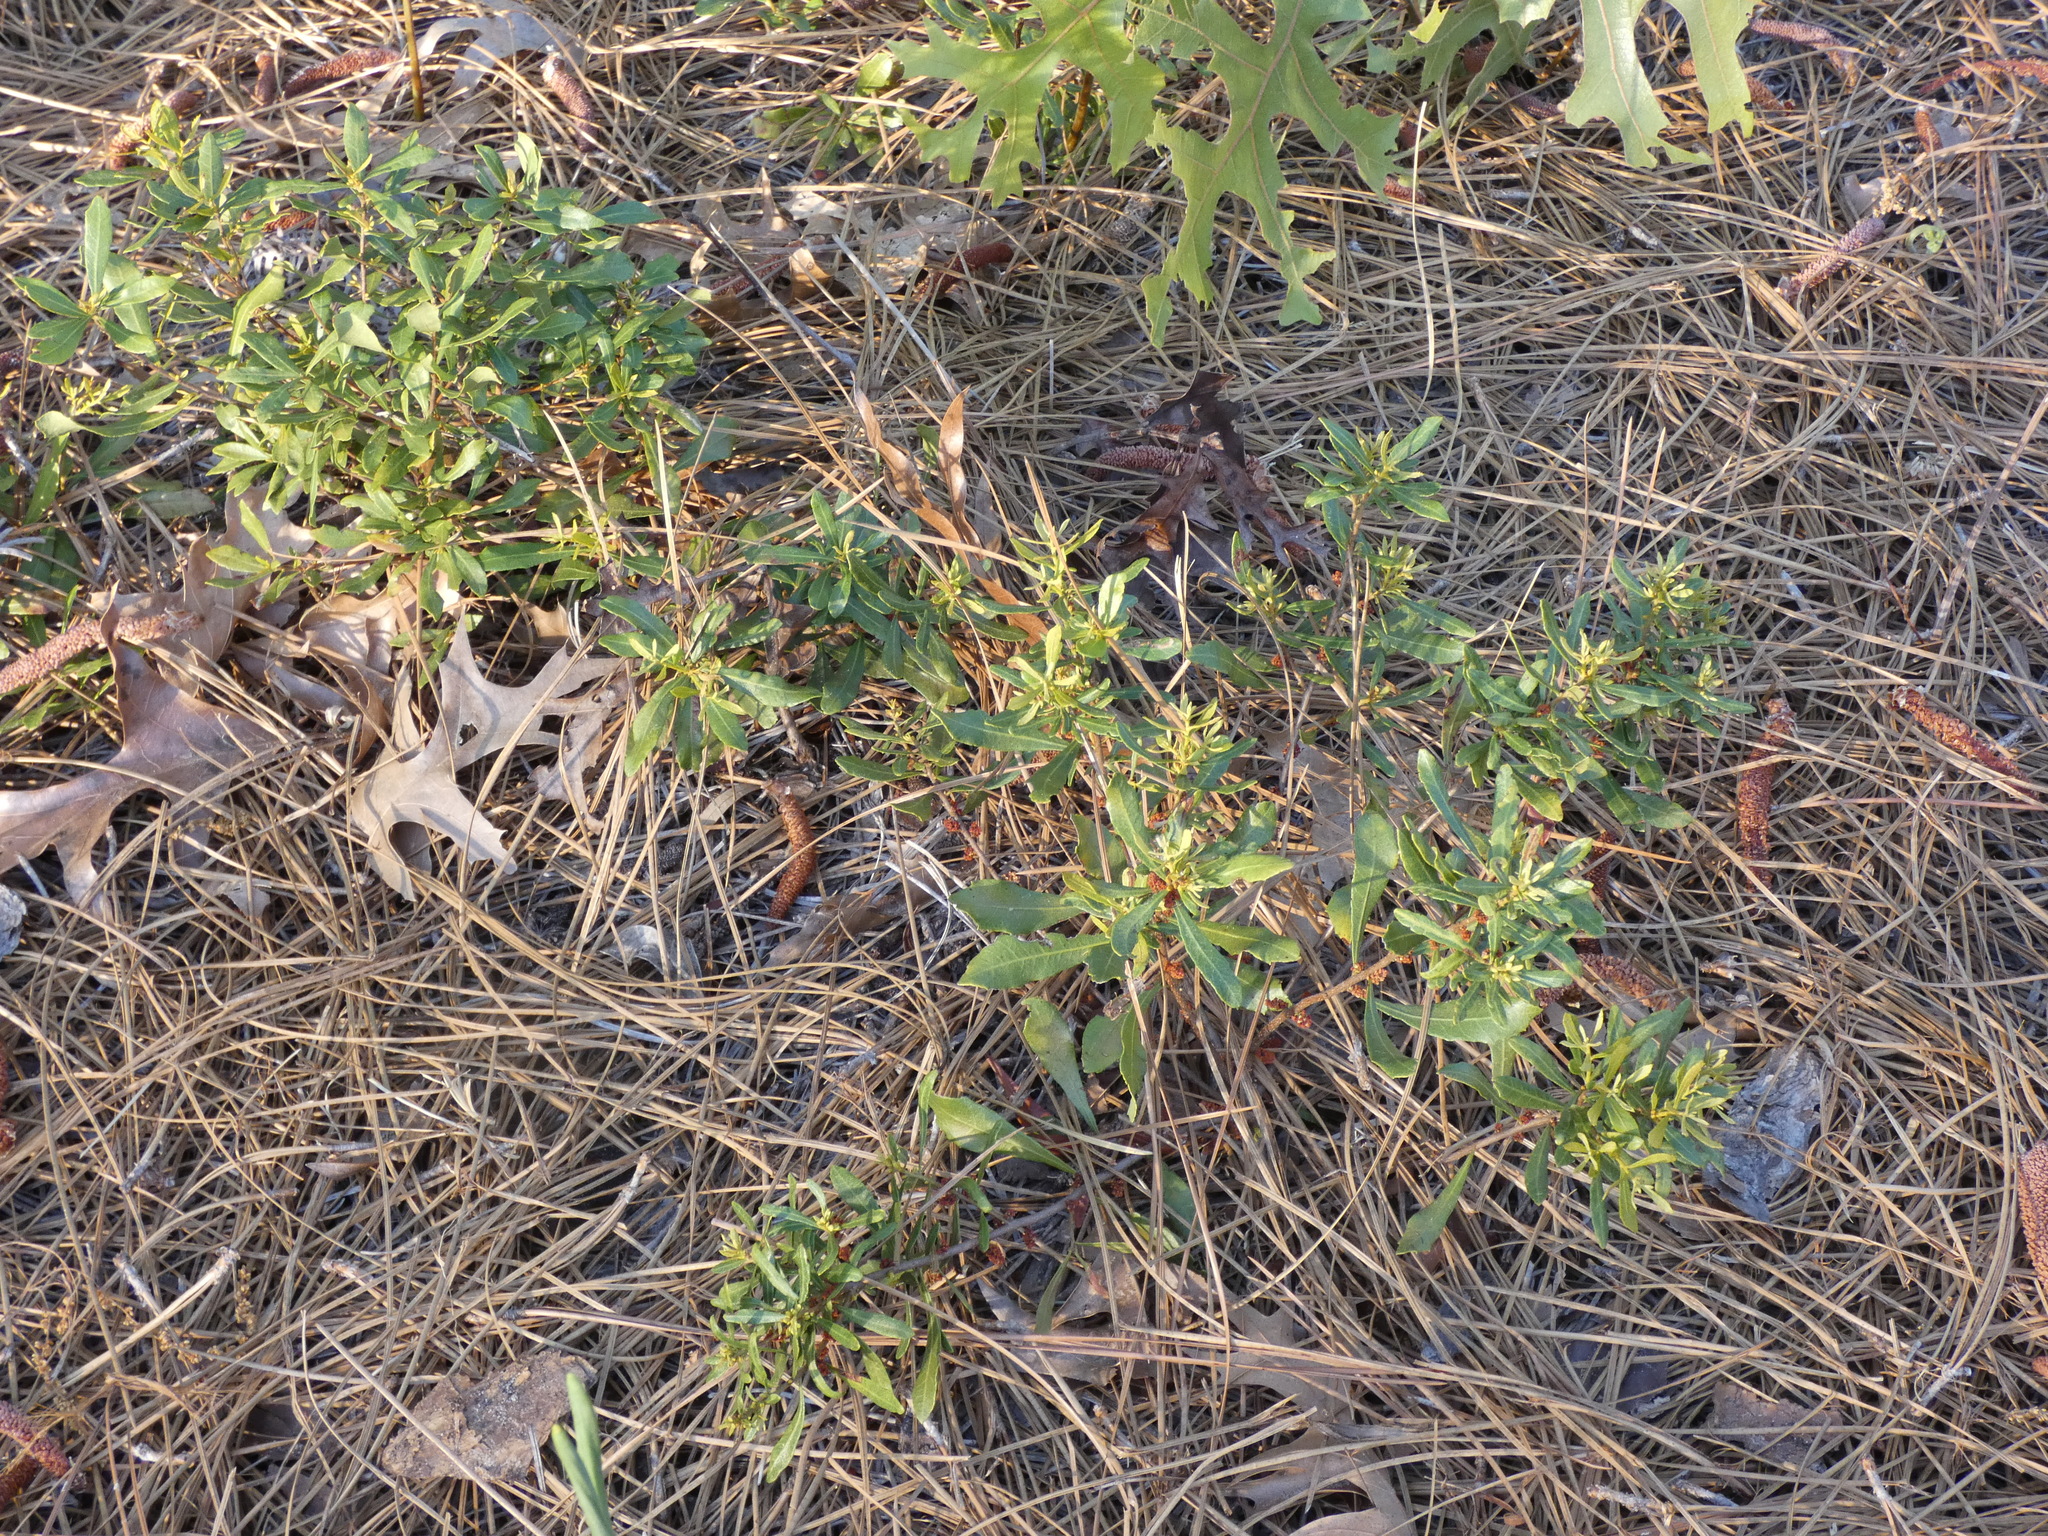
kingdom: Plantae
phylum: Tracheophyta
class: Magnoliopsida
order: Fagales
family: Myricaceae
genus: Morella
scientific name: Morella cerifera
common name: Wax myrtle
